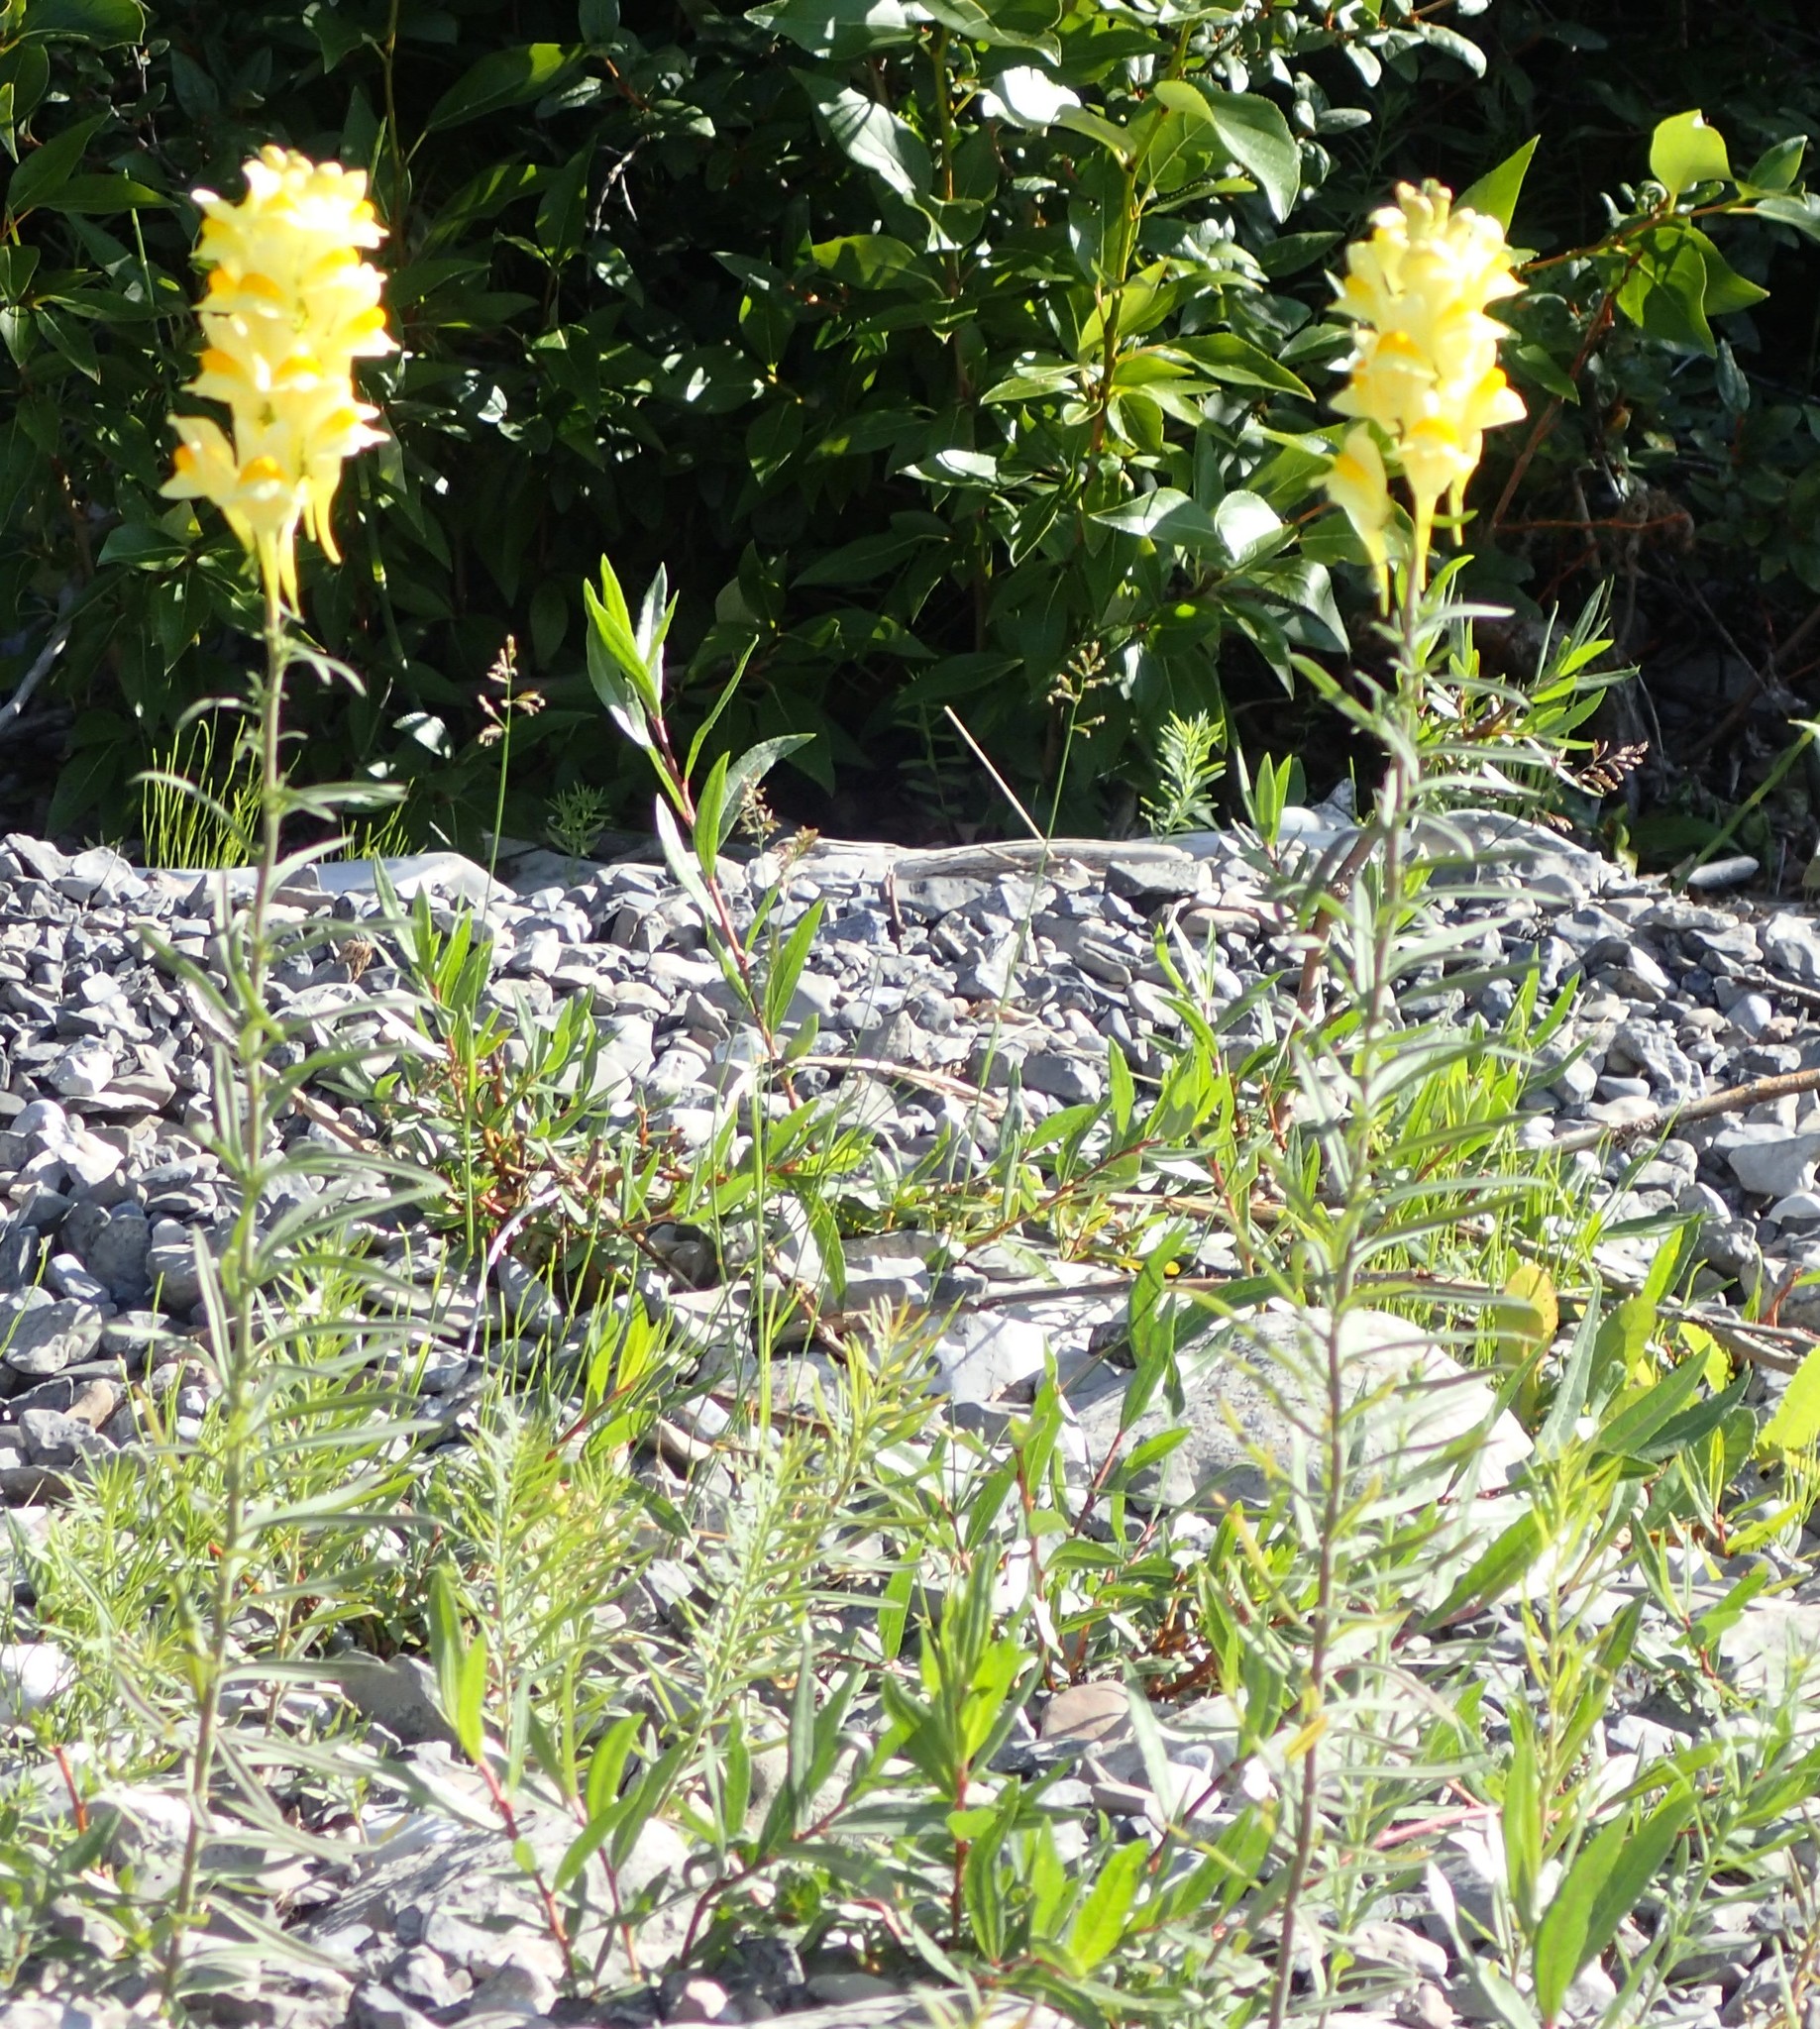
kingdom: Plantae
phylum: Tracheophyta
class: Magnoliopsida
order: Lamiales
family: Plantaginaceae
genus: Linaria
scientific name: Linaria vulgaris
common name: Butter and eggs
